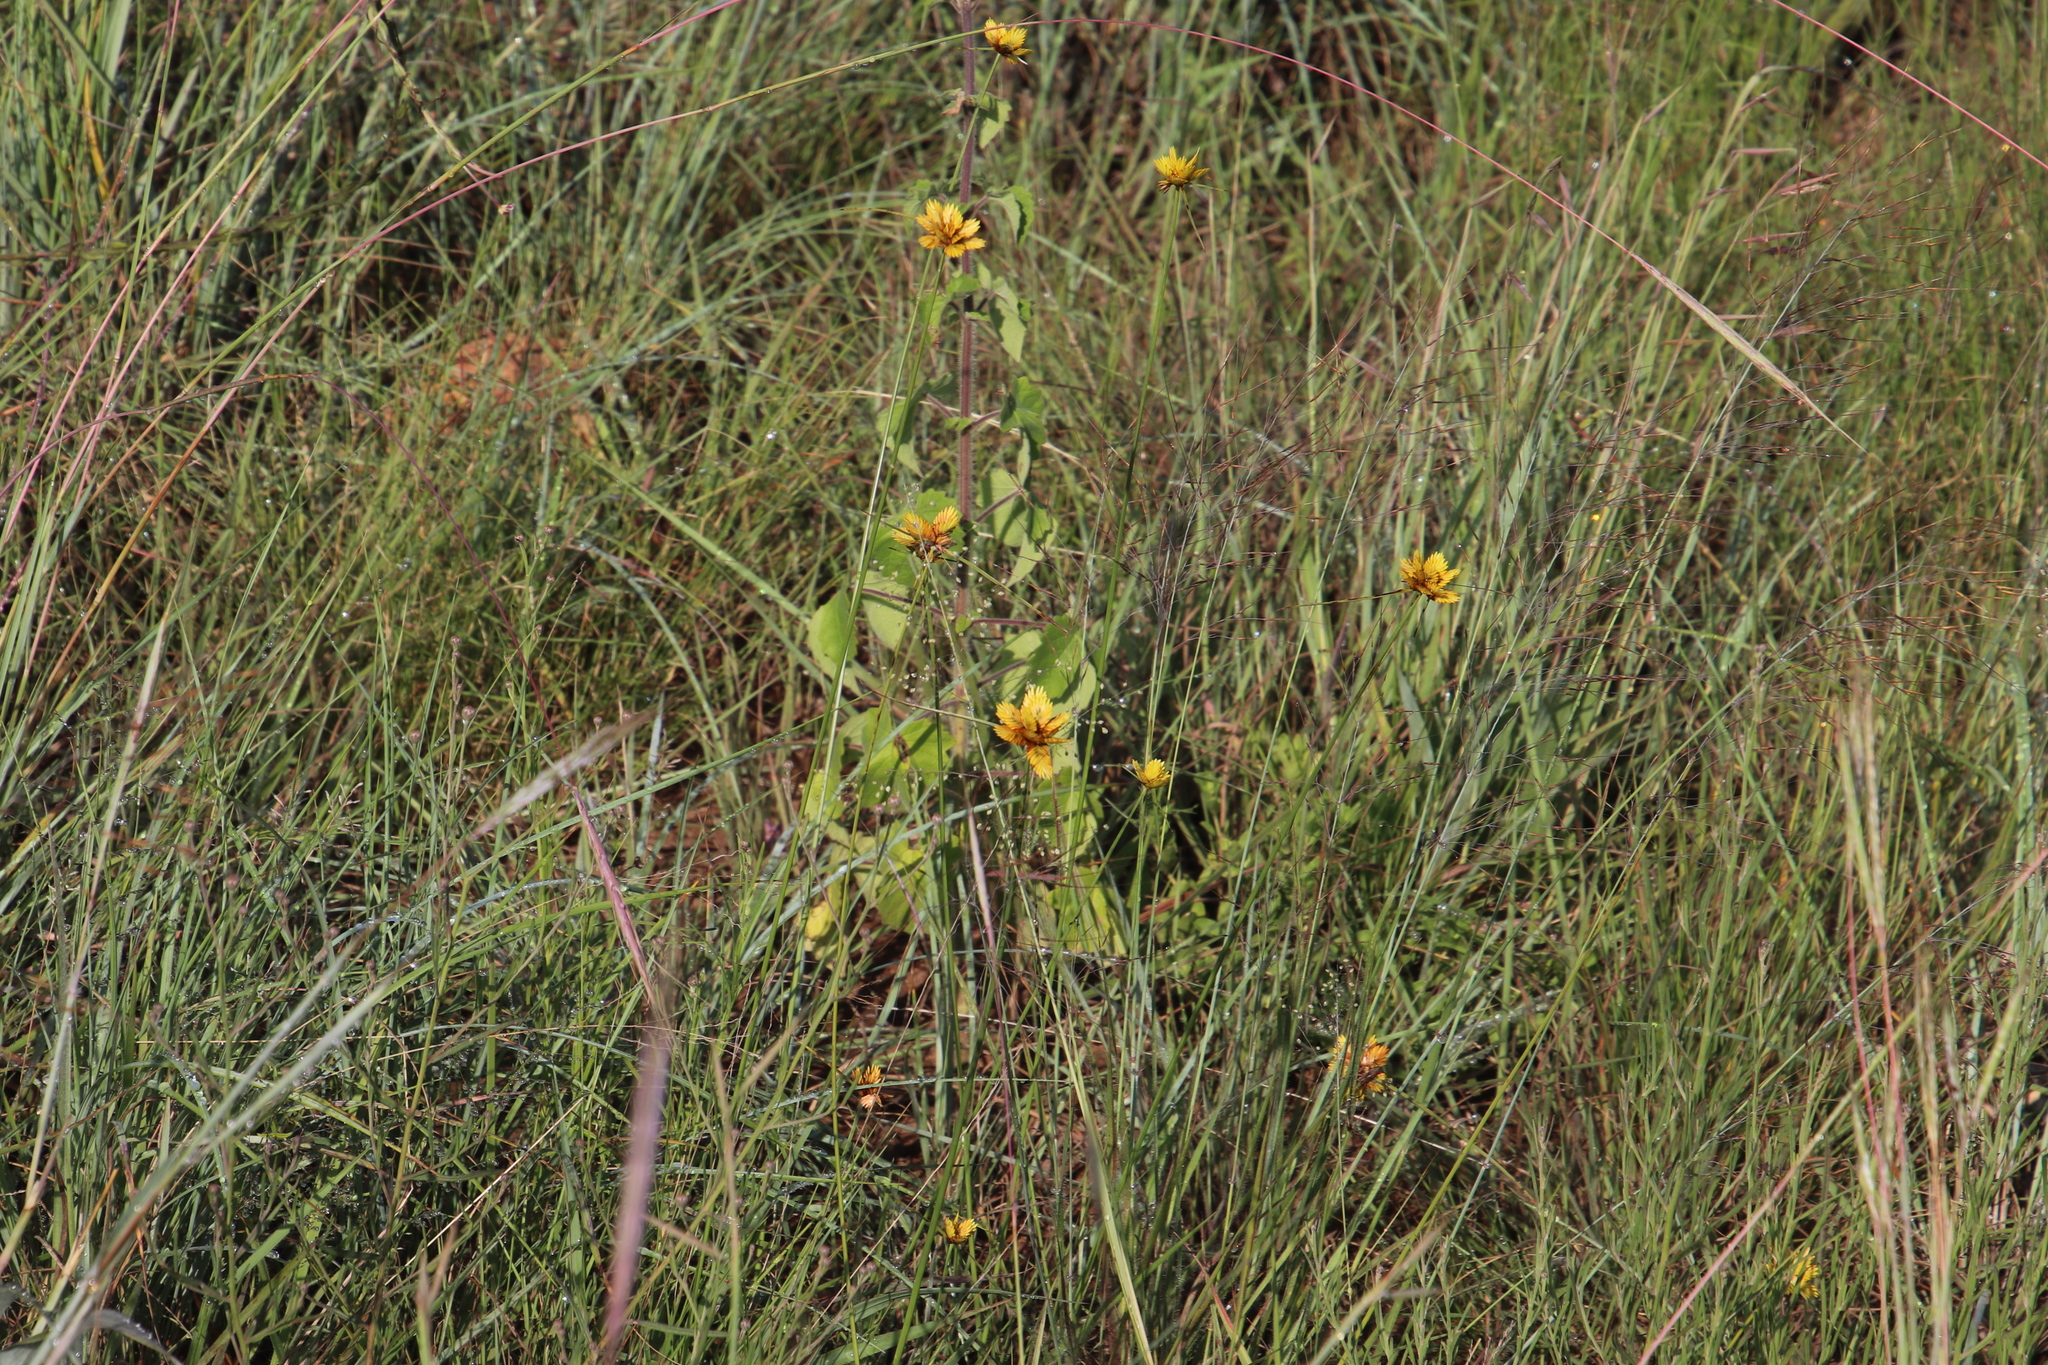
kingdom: Plantae
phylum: Tracheophyta
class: Liliopsida
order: Poales
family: Cyperaceae
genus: Cyperus
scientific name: Cyperus sphaerocephalus
